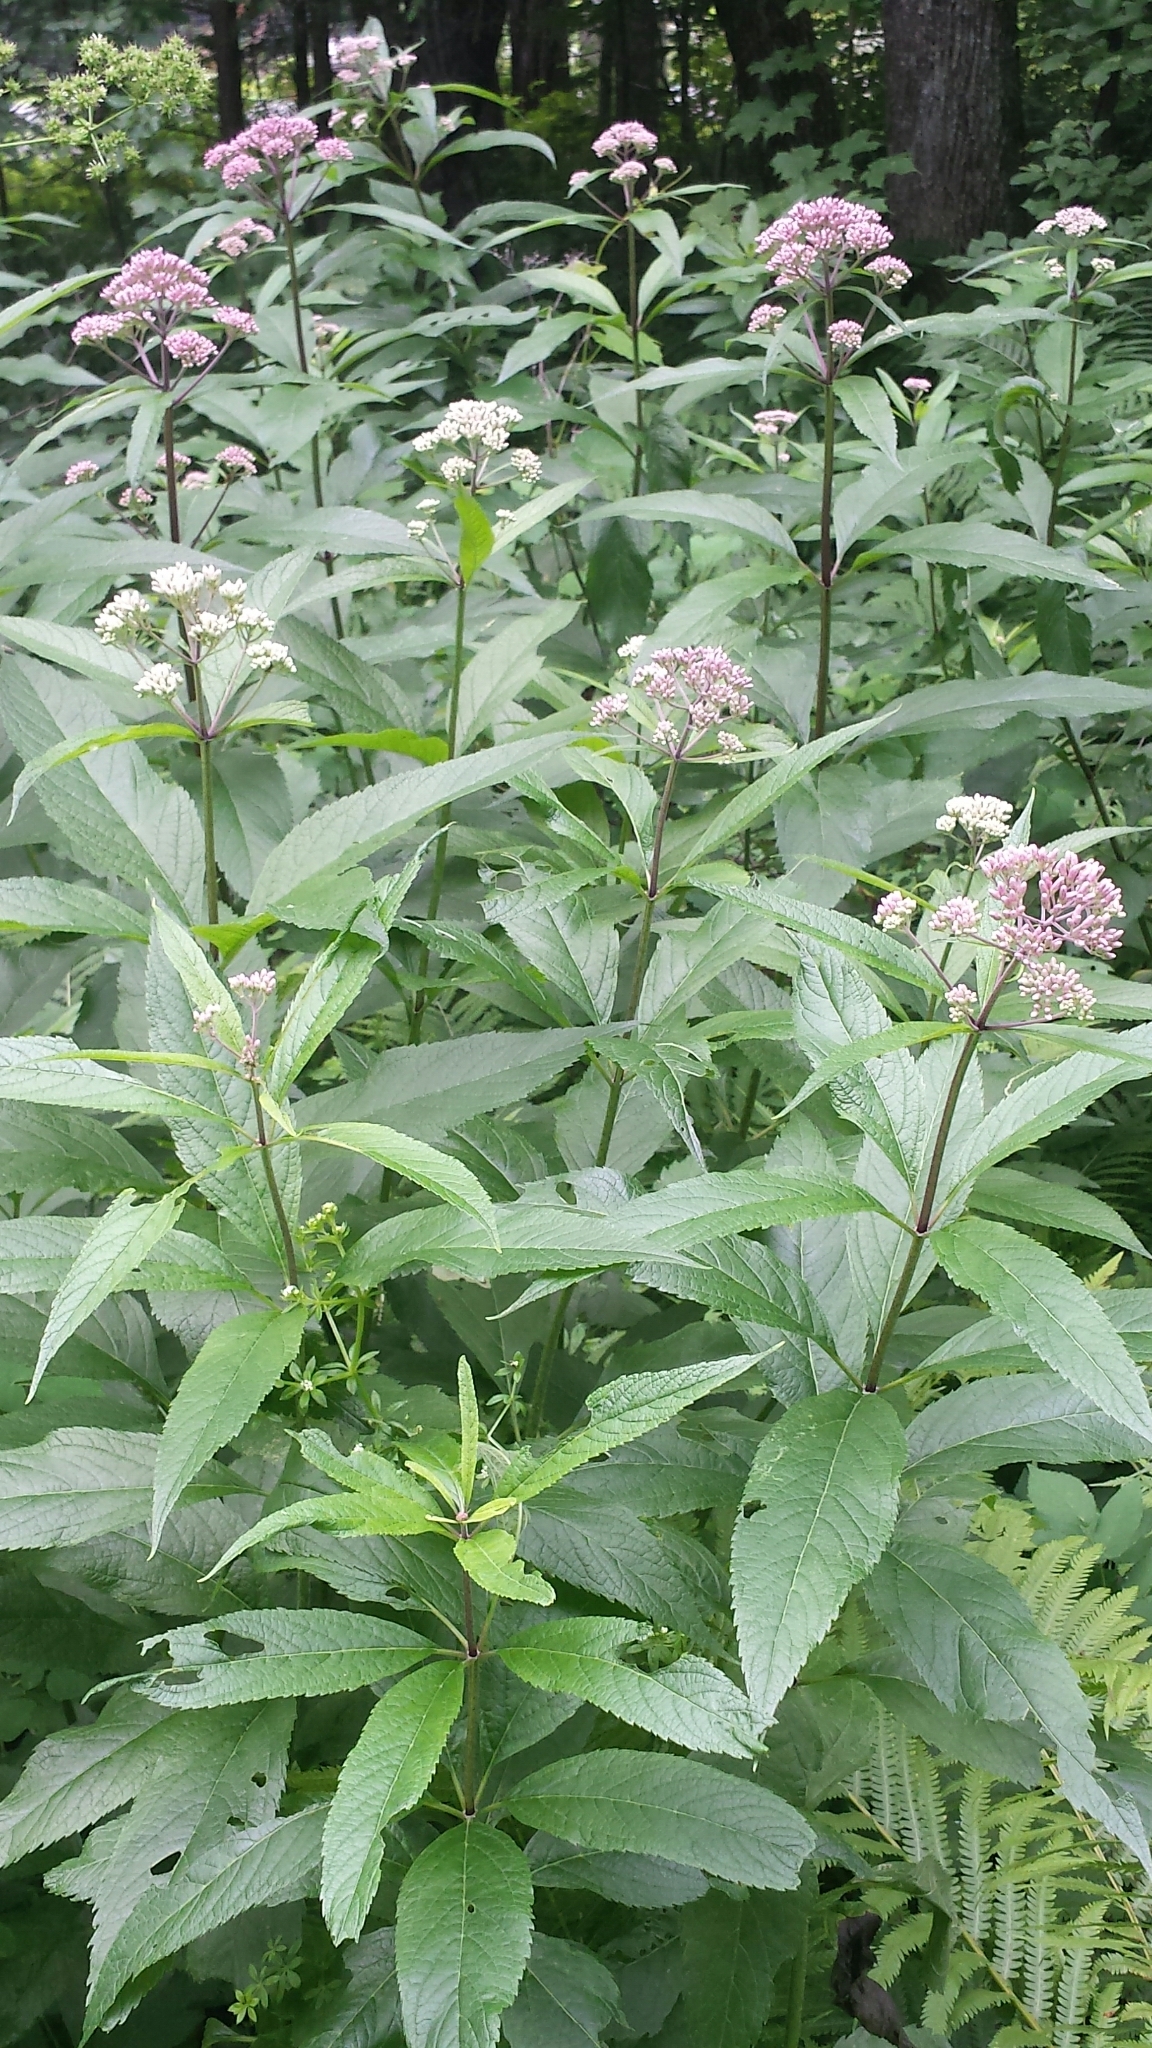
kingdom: Plantae
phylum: Tracheophyta
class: Magnoliopsida
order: Asterales
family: Asteraceae
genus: Eutrochium
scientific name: Eutrochium maculatum
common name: Spotted joe pye weed
